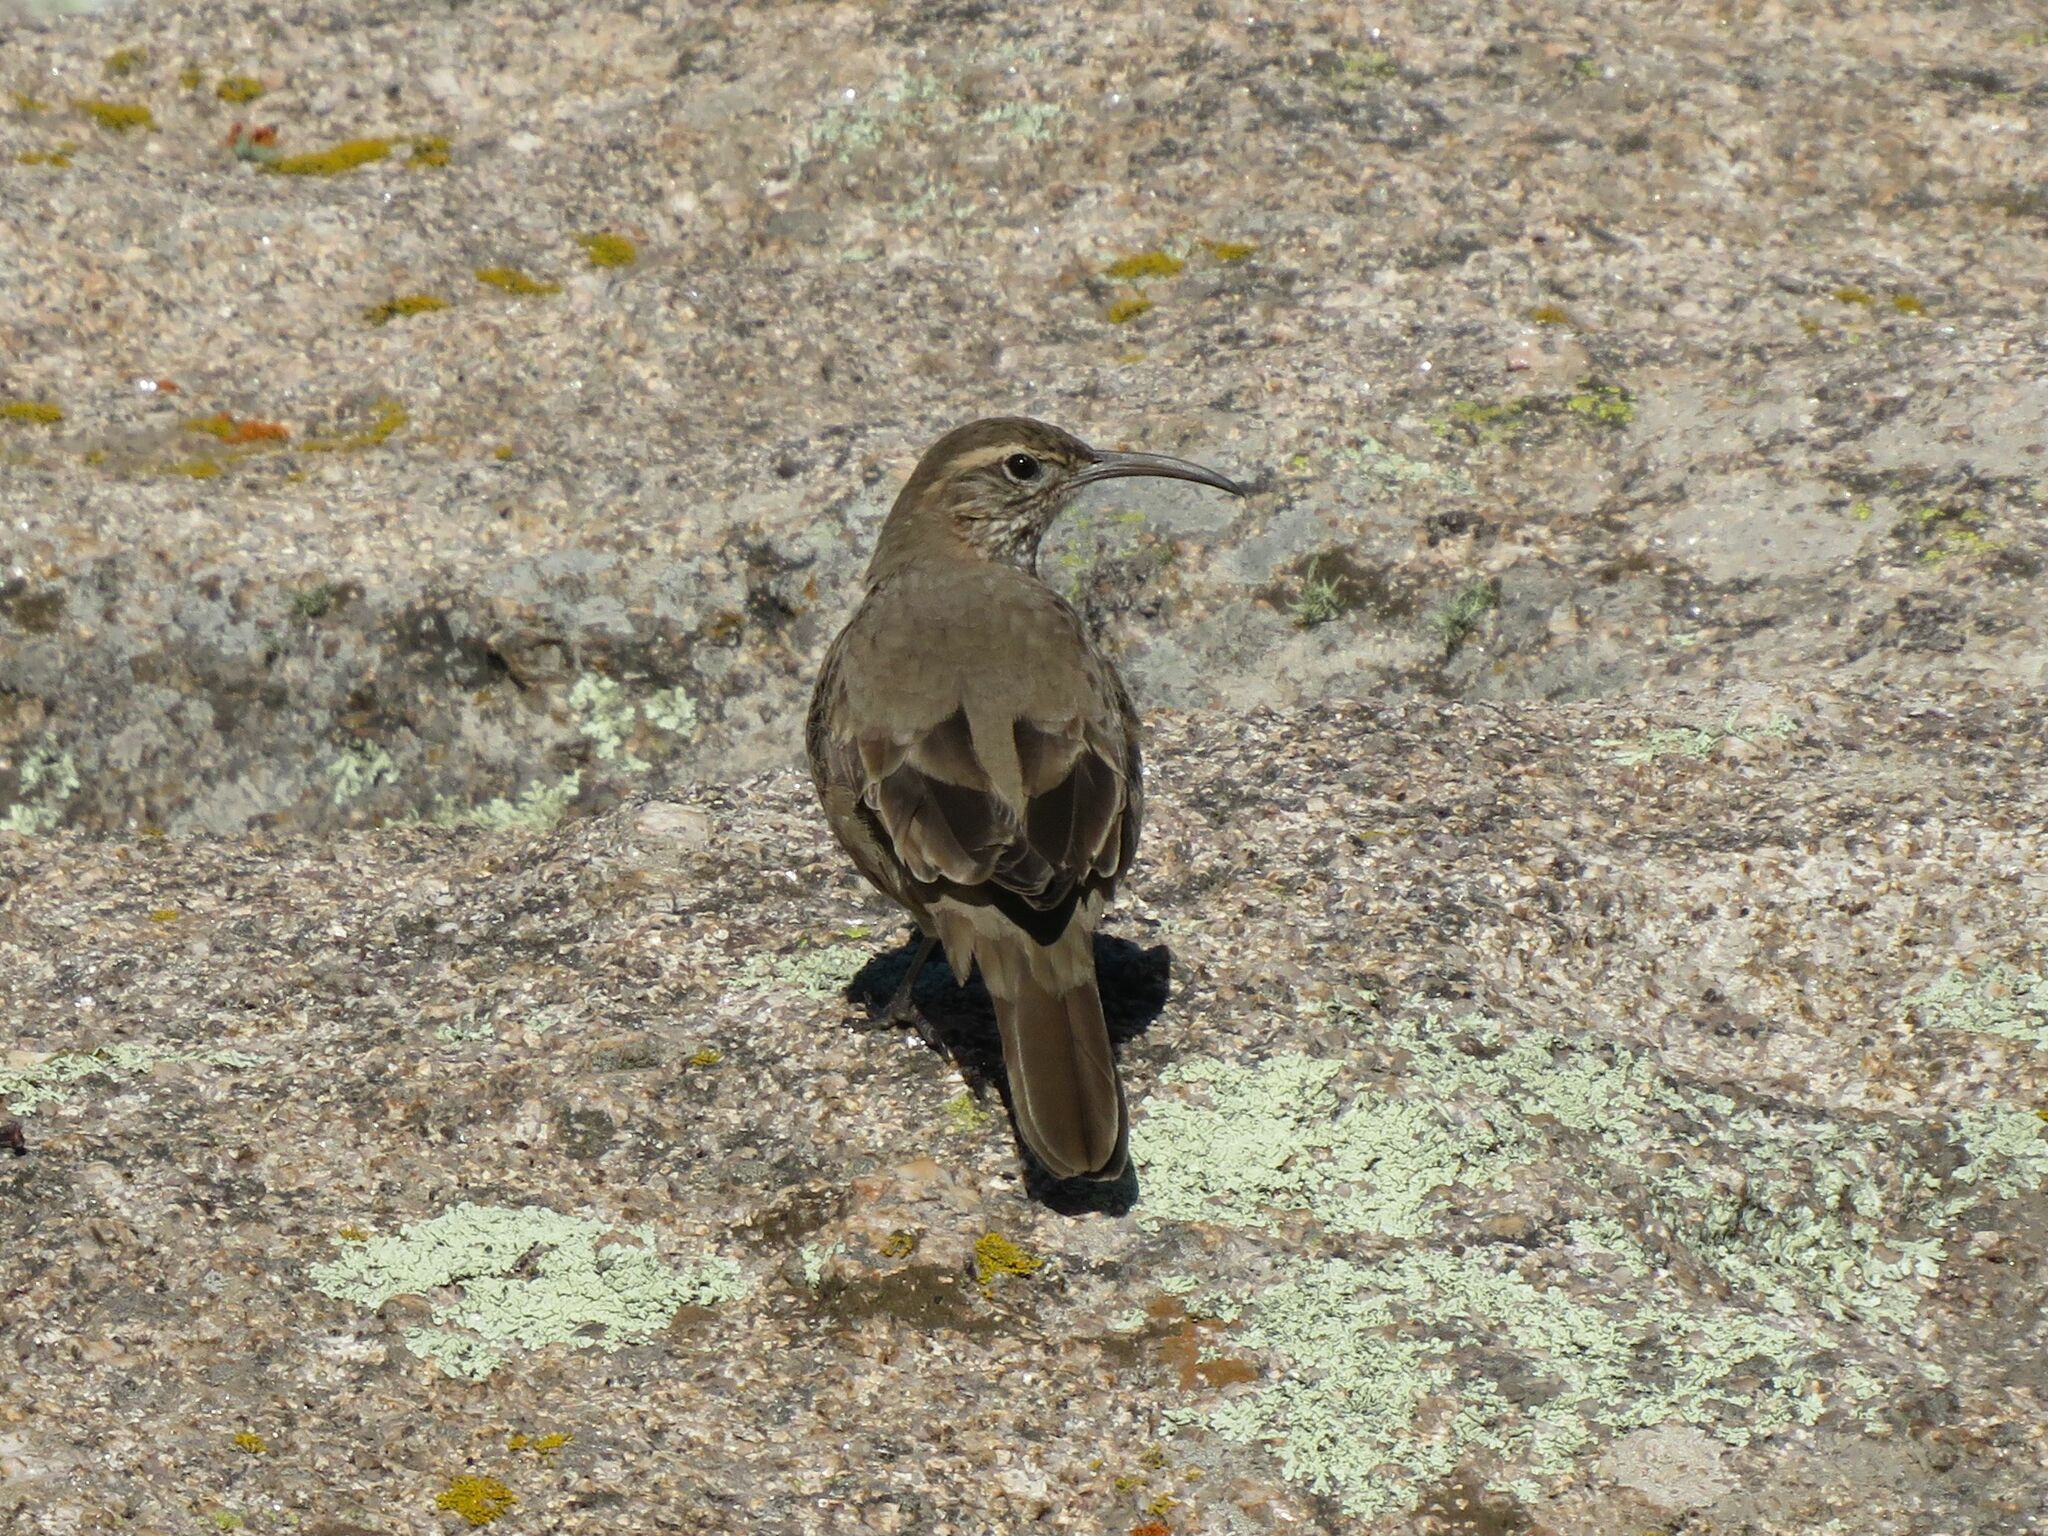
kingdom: Animalia
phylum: Chordata
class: Aves
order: Passeriformes
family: Furnariidae
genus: Upucerthia
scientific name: Upucerthia dumetaria
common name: Scale-throated earthcreeper
